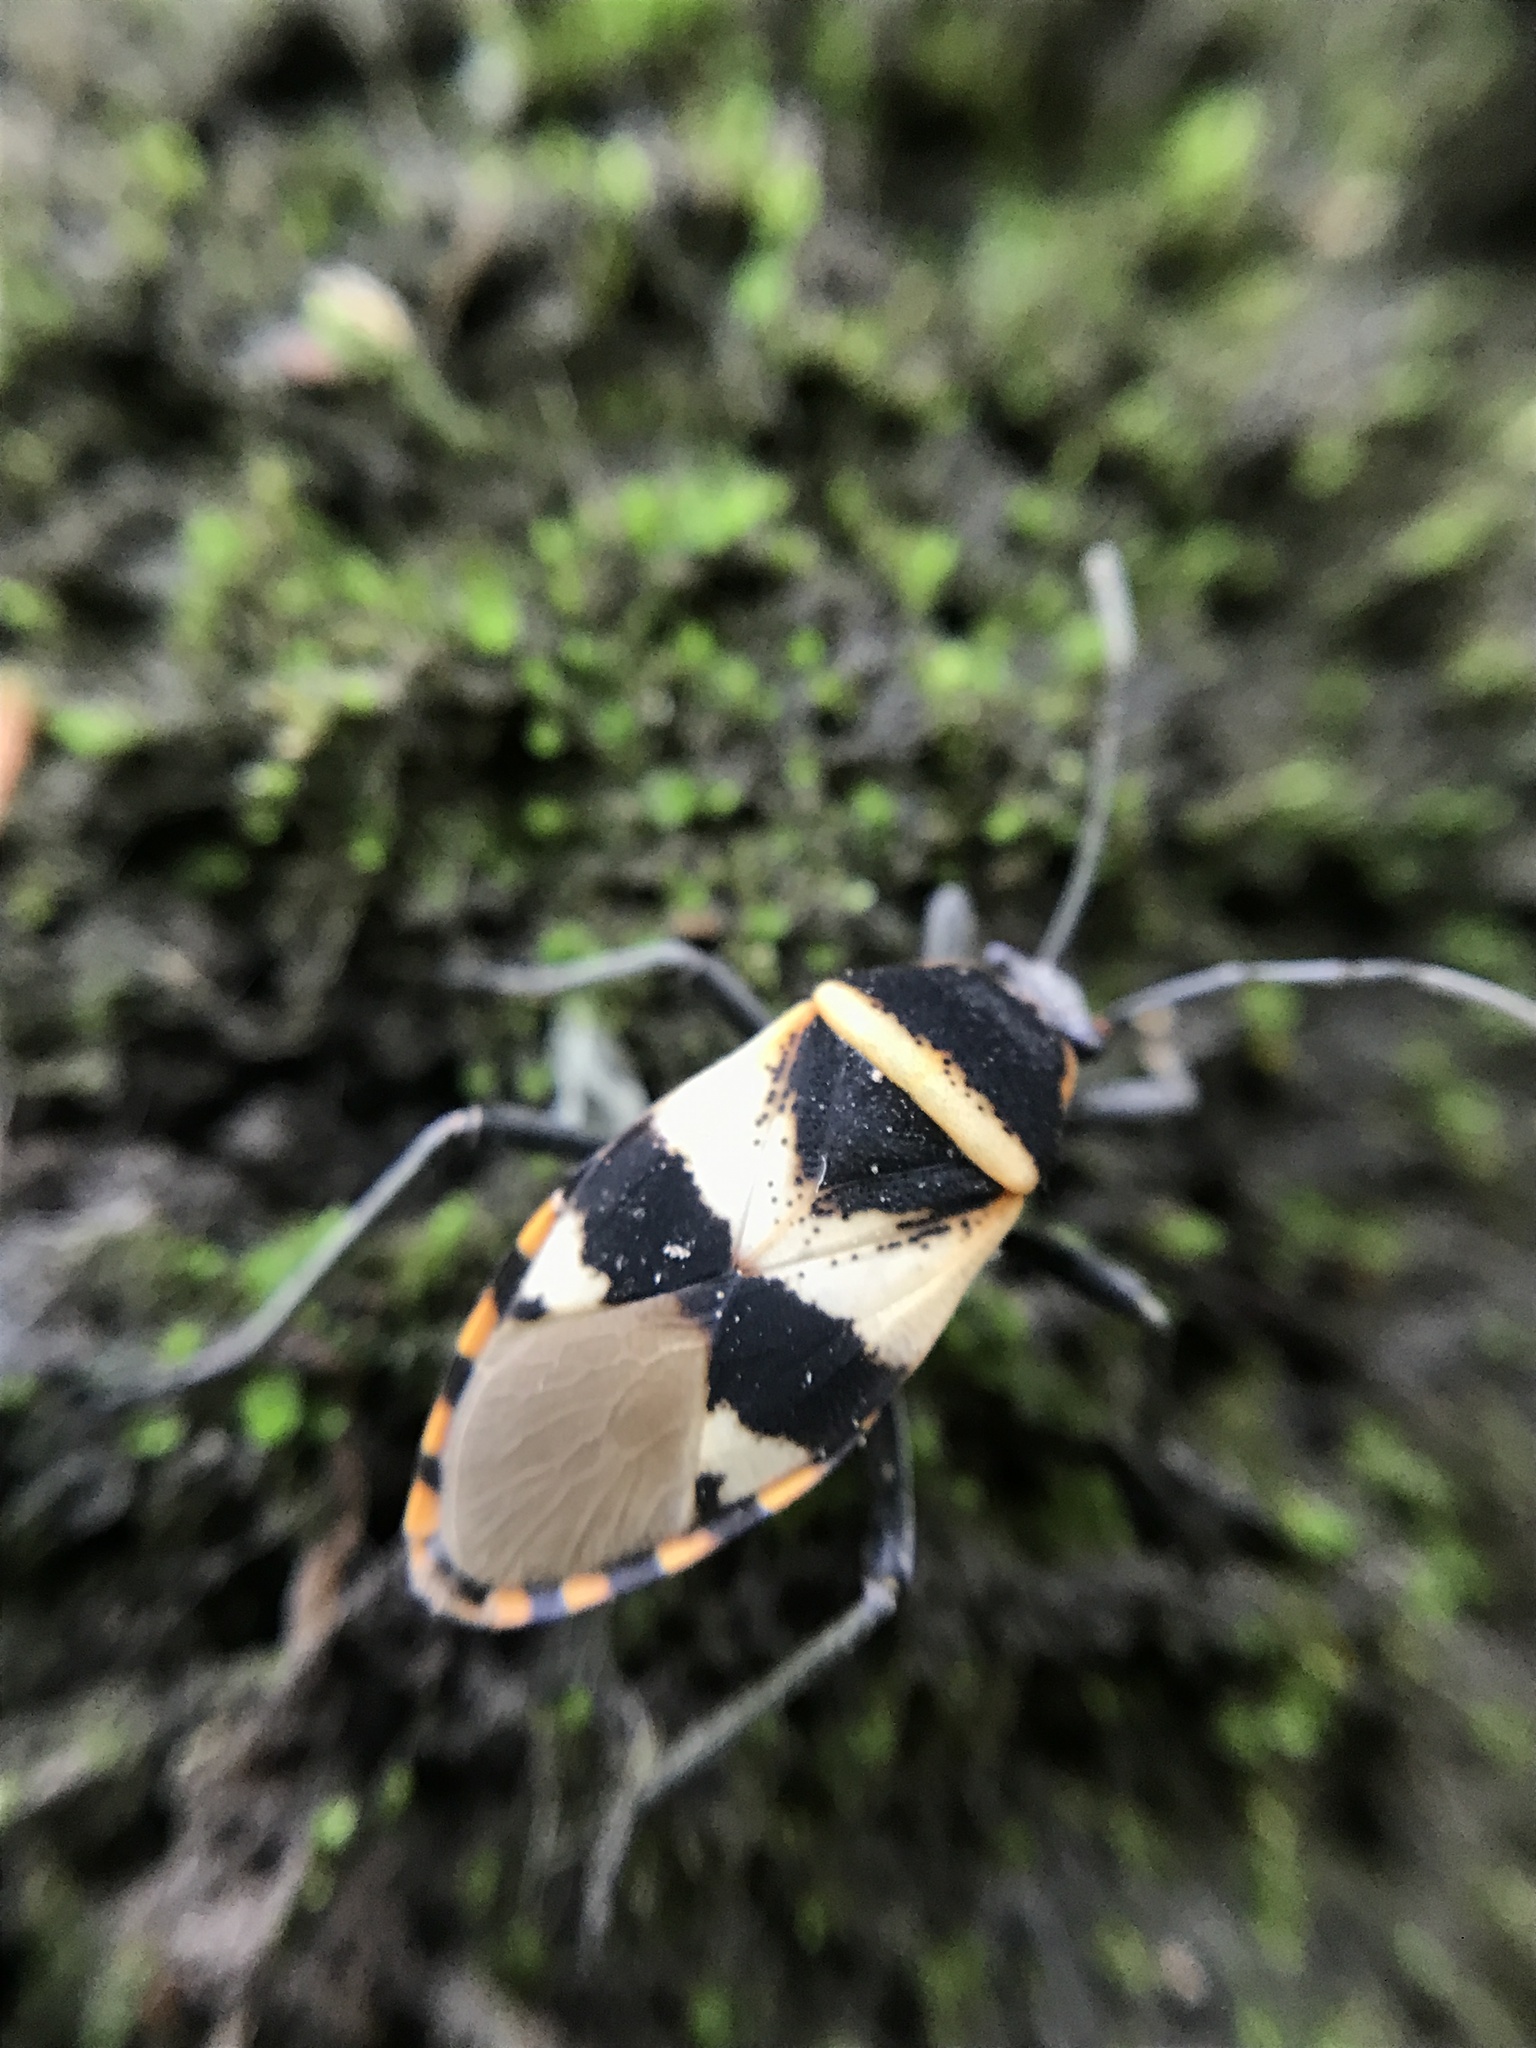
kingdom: Animalia
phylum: Arthropoda
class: Insecta
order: Hemiptera
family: Largidae
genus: Largus
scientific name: Largus fasciatus
